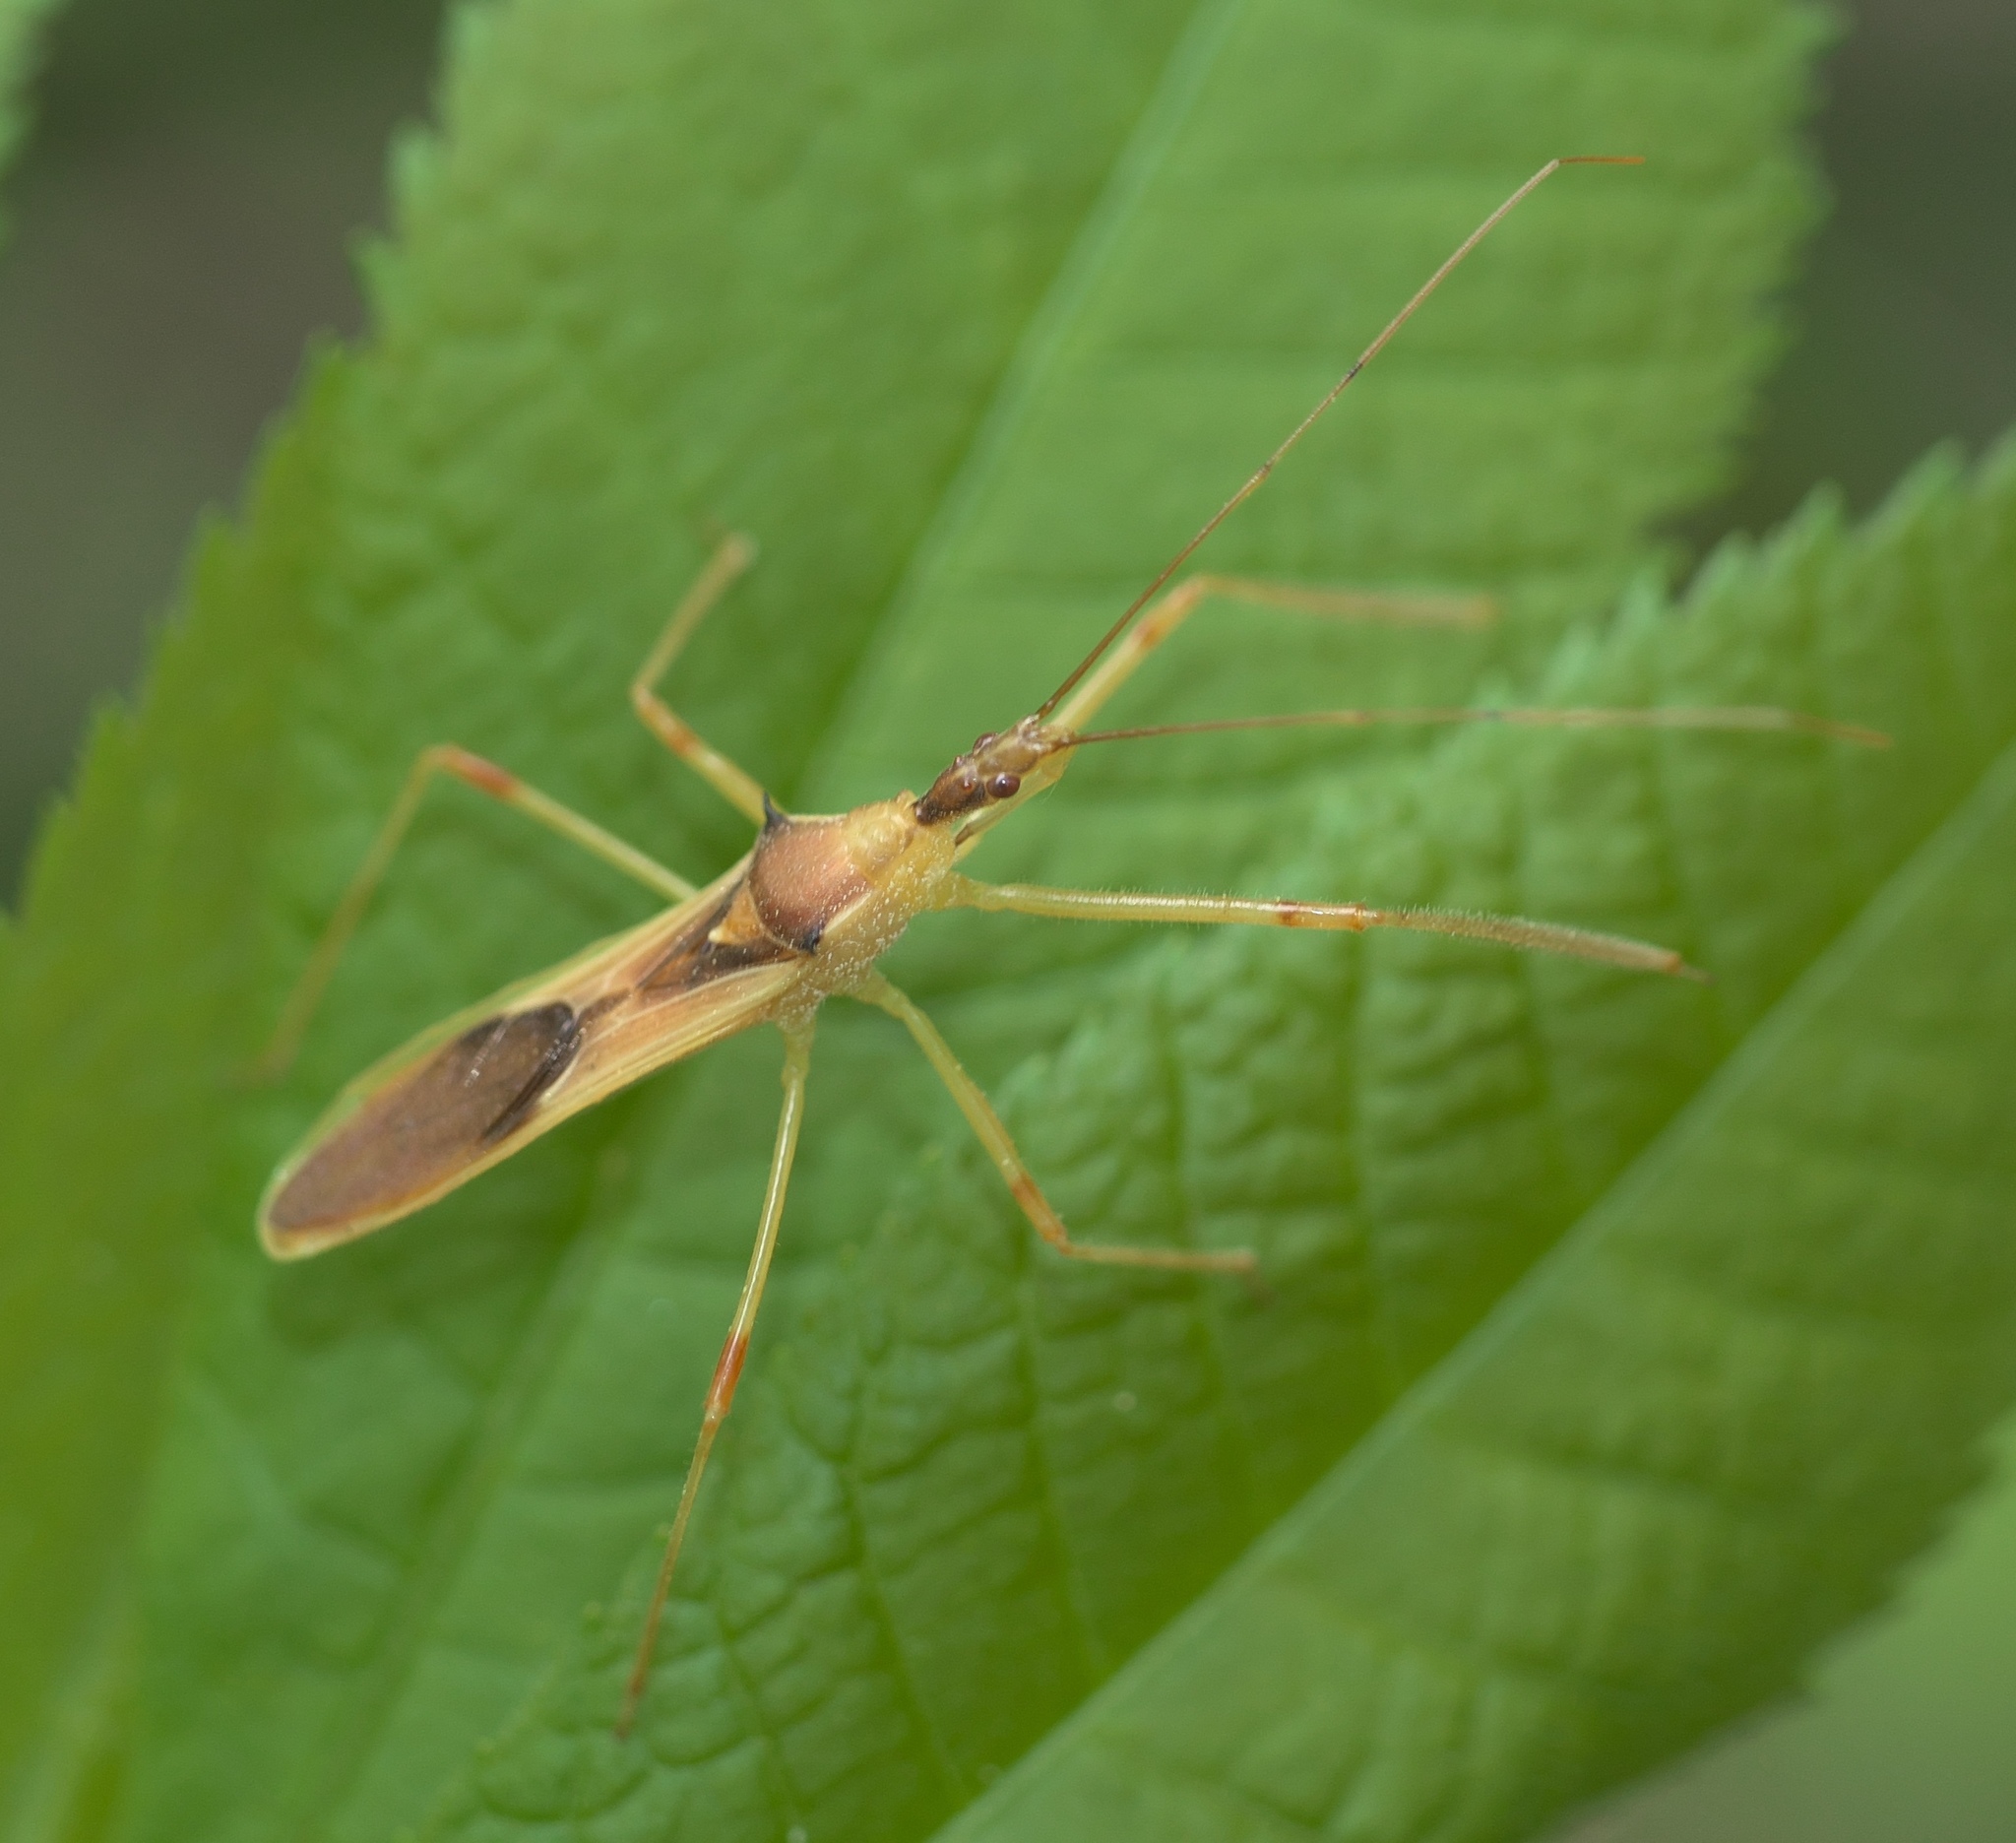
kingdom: Animalia
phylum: Arthropoda
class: Insecta
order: Hemiptera
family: Reduviidae
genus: Zelus
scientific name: Zelus luridus
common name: Pale green assassin bug
